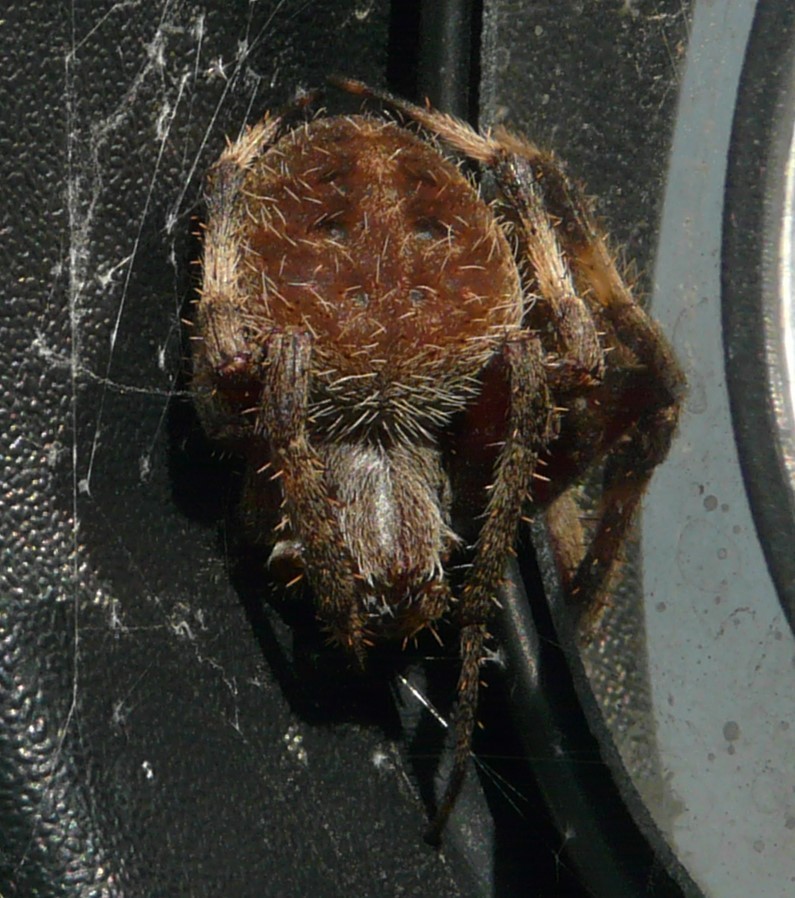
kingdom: Animalia
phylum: Arthropoda
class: Arachnida
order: Araneae
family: Araneidae
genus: Neoscona
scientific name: Neoscona crucifera
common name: Spotted orbweaver
